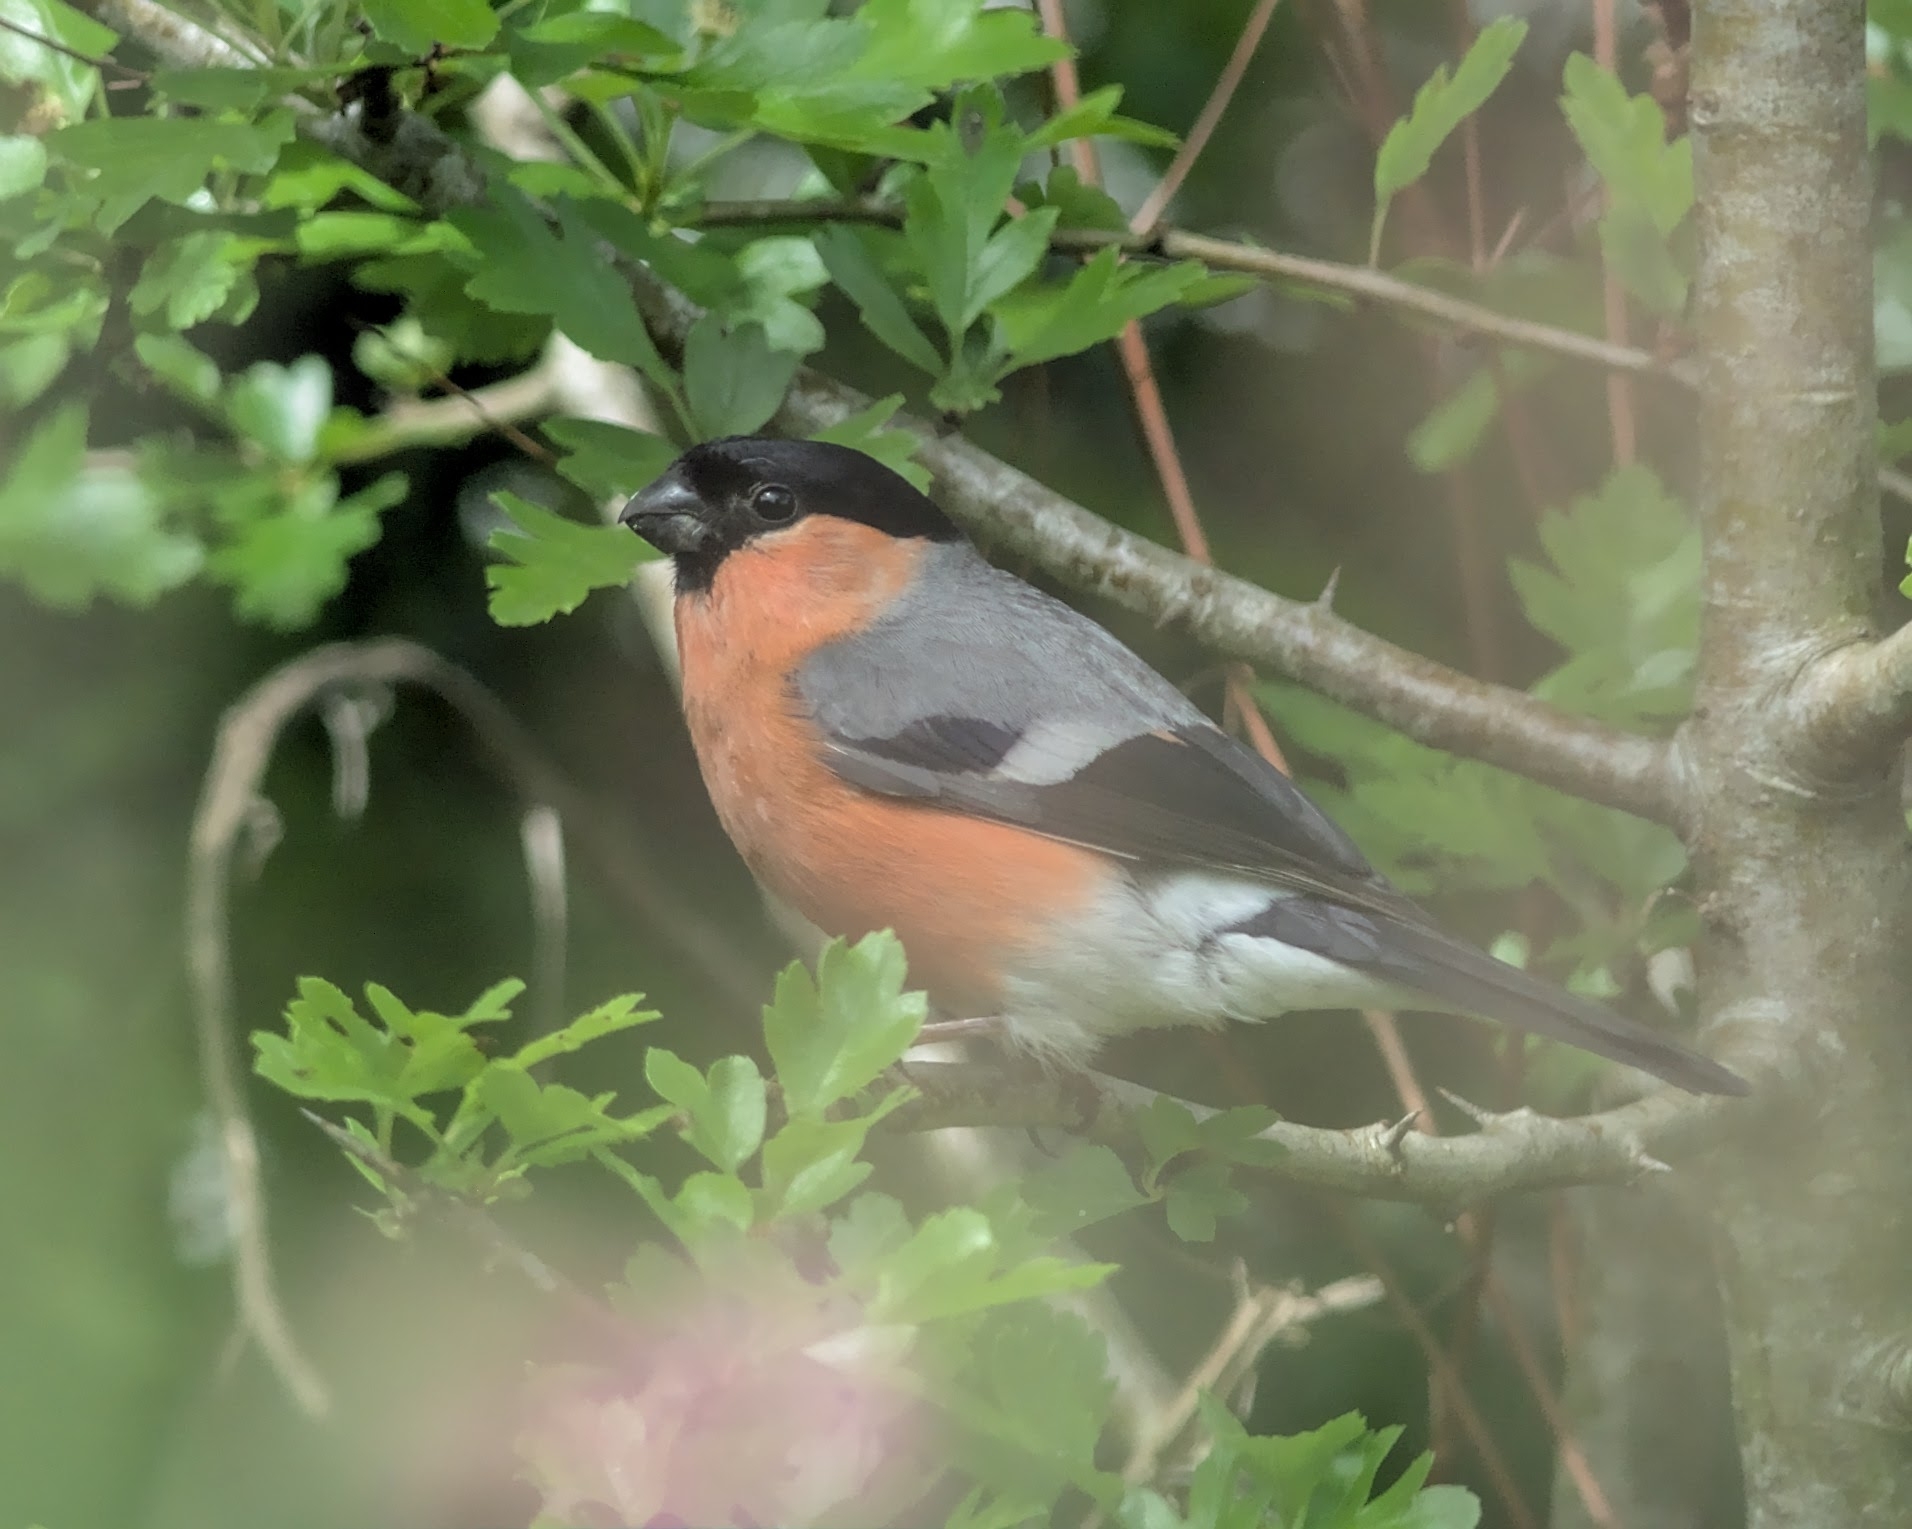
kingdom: Animalia
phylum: Chordata
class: Aves
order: Passeriformes
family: Fringillidae
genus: Pyrrhula
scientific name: Pyrrhula pyrrhula
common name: Eurasian bullfinch
